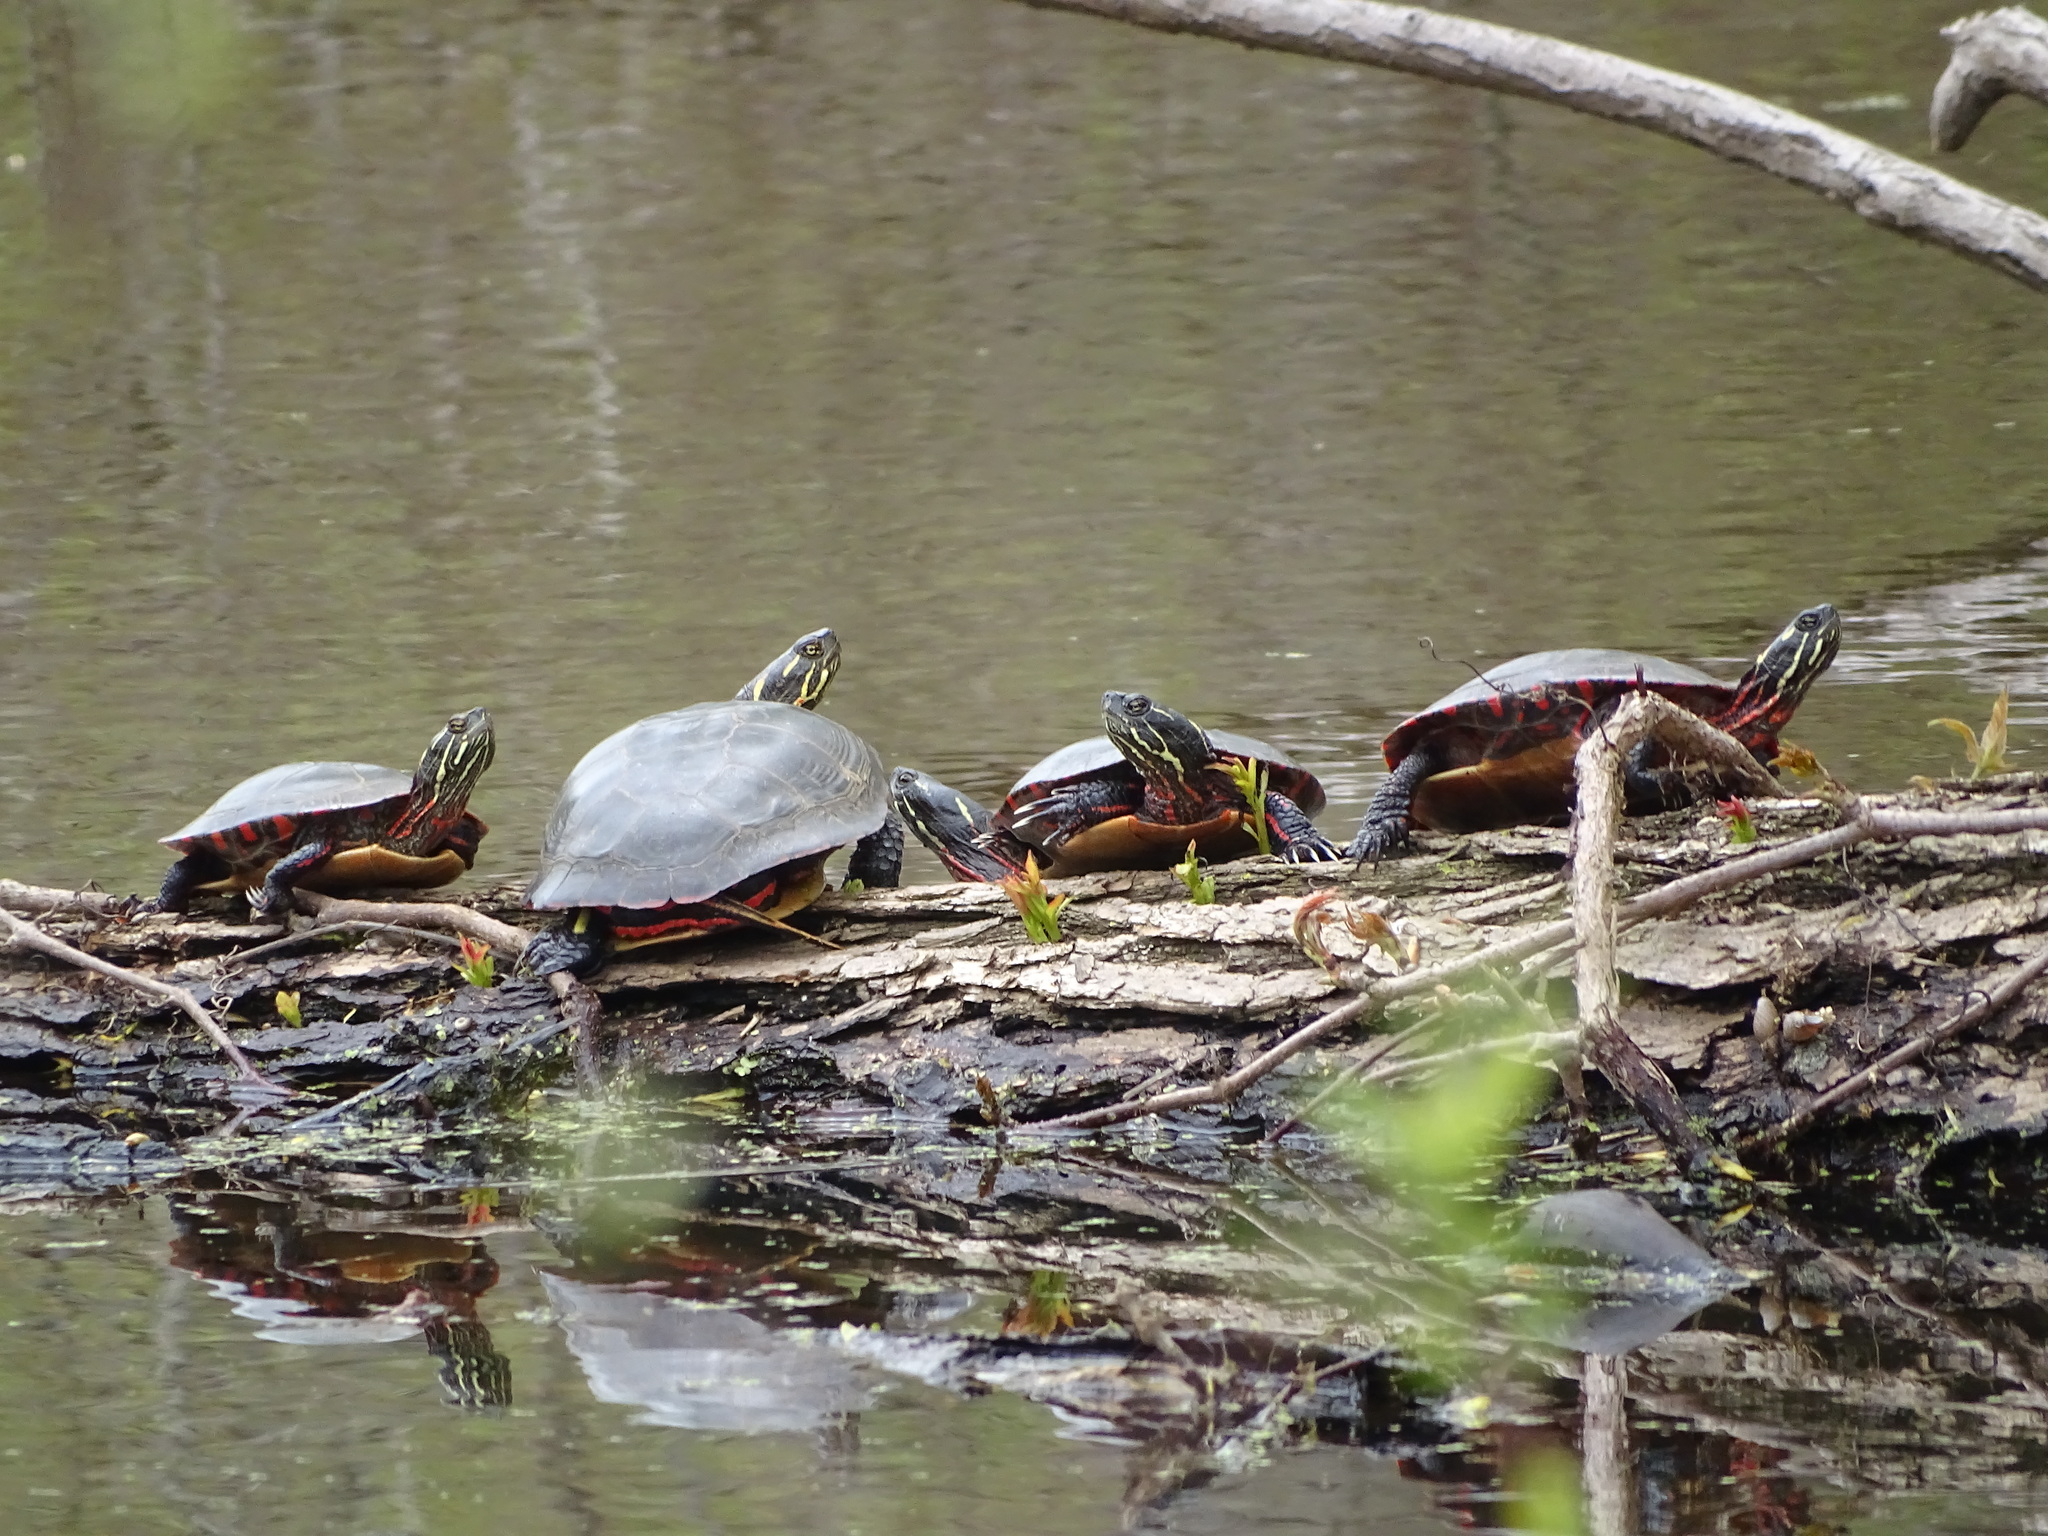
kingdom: Animalia
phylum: Chordata
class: Testudines
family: Emydidae
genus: Chrysemys
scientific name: Chrysemys picta
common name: Painted turtle
